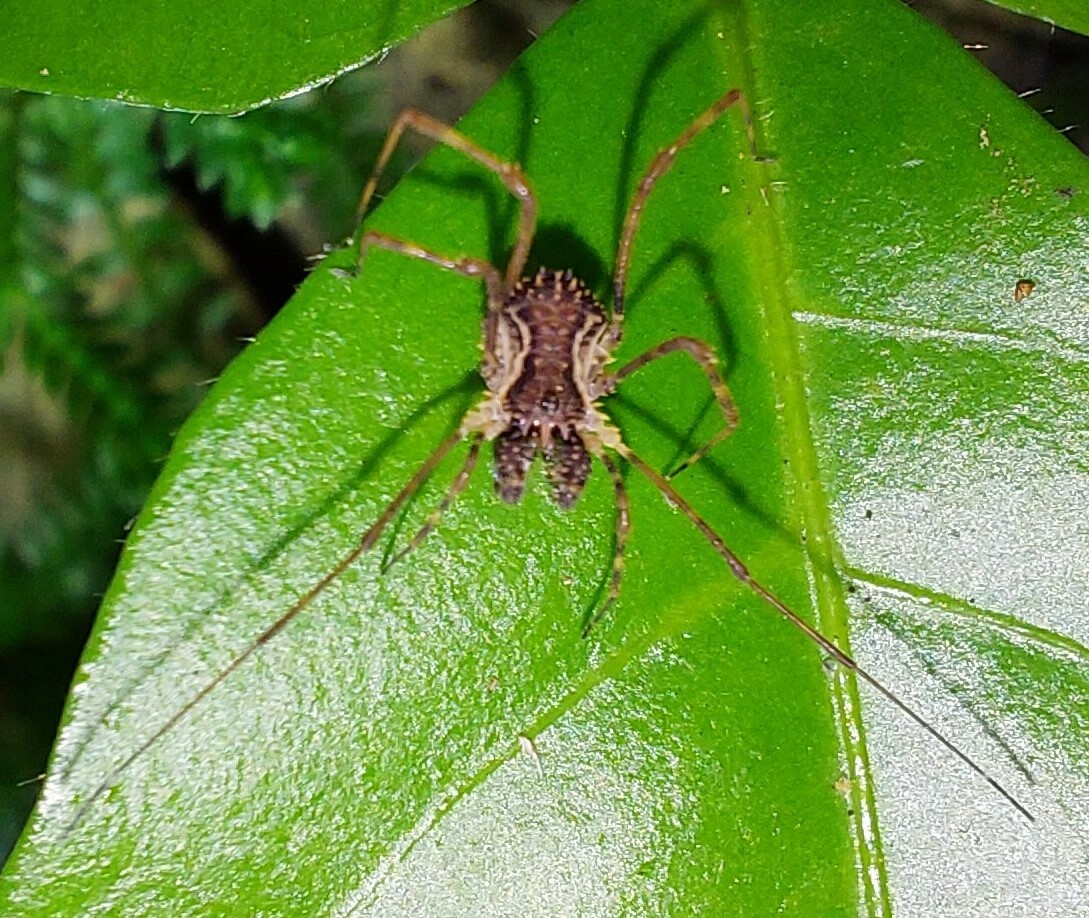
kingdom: Animalia
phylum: Arthropoda
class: Arachnida
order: Opiliones
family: Triaenonychidae
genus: Algidia
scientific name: Algidia chiltoni
